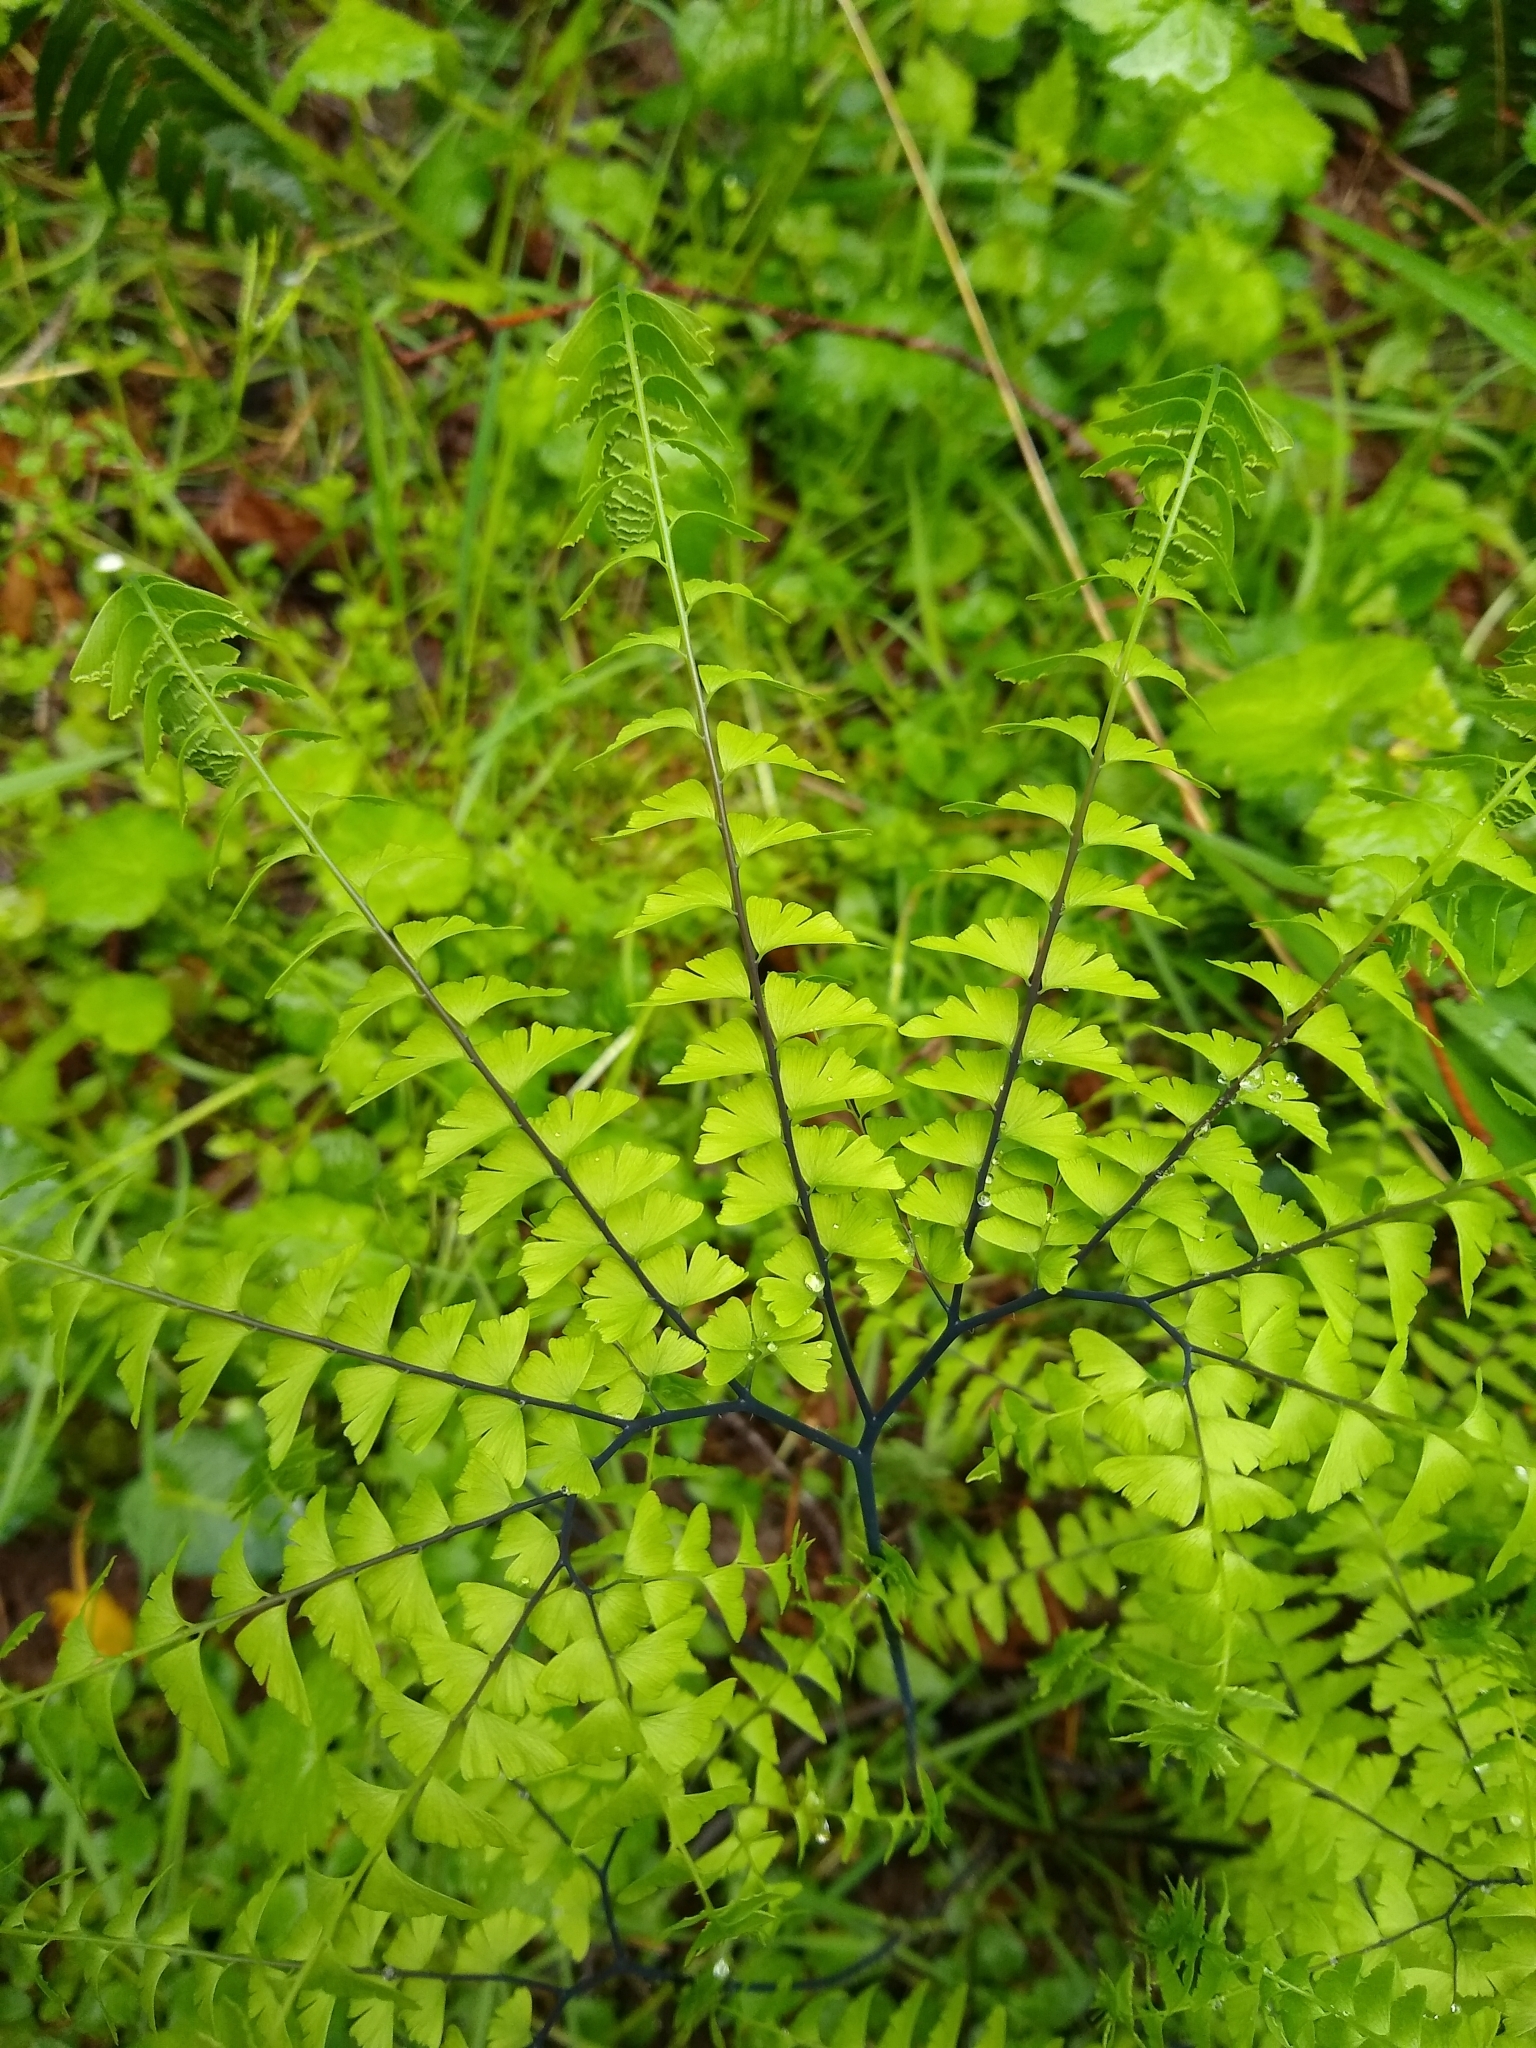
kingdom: Plantae
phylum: Tracheophyta
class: Polypodiopsida
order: Polypodiales
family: Pteridaceae
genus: Adiantum
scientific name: Adiantum aleuticum
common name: Aleutian maidenhair fern
